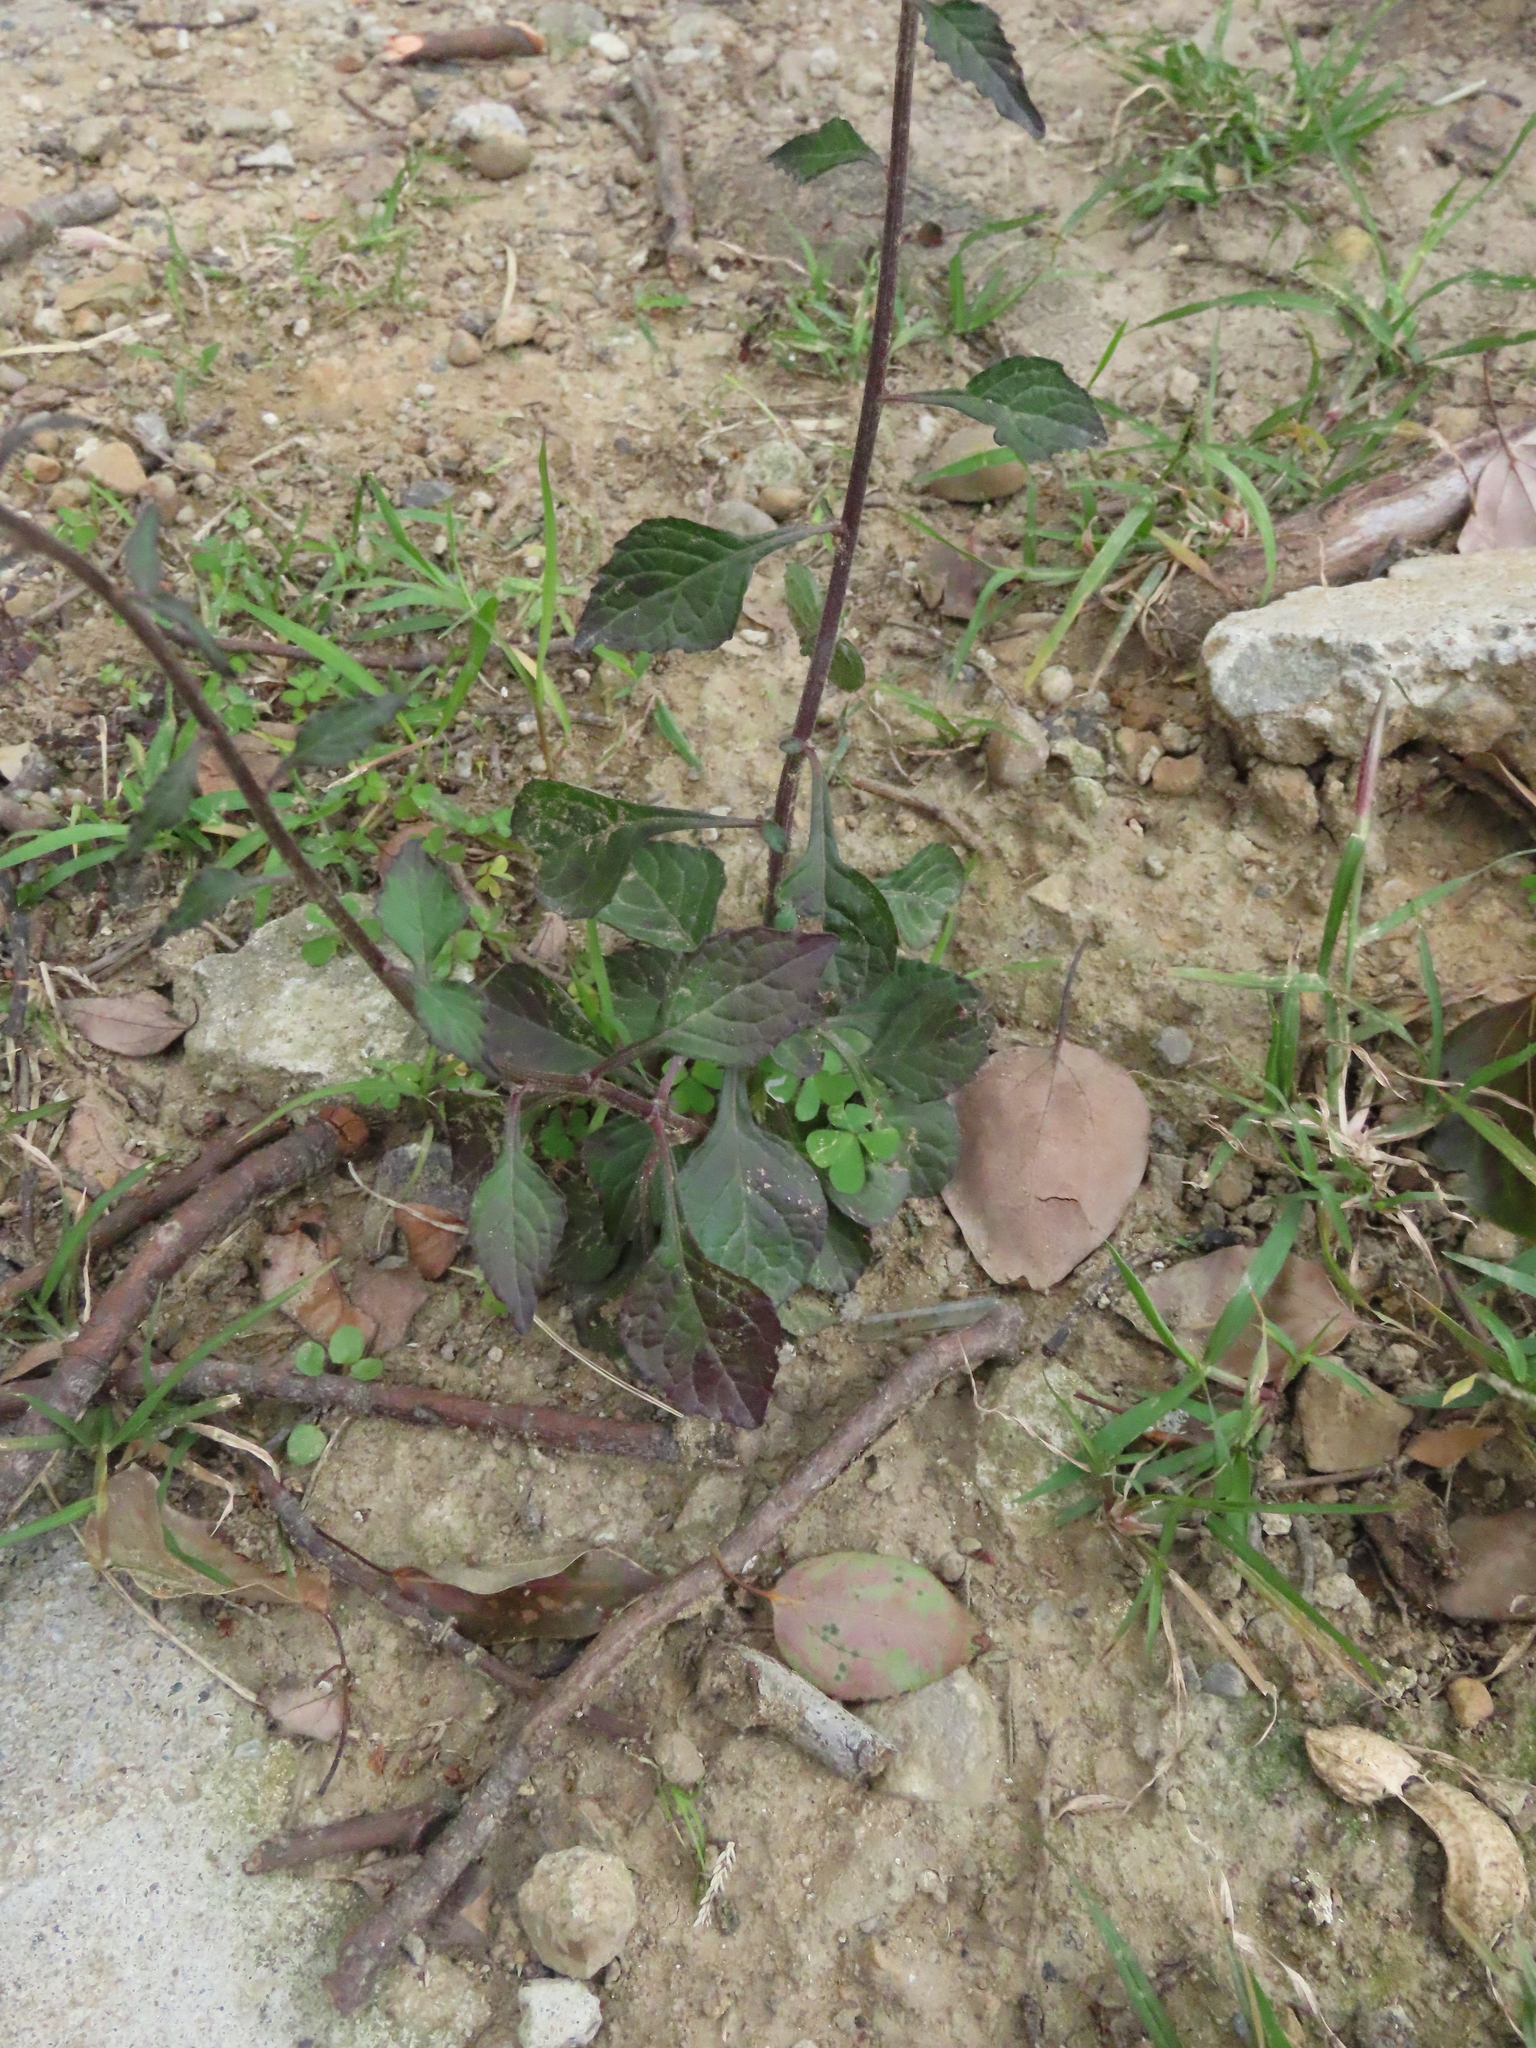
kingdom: Plantae
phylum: Tracheophyta
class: Magnoliopsida
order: Asterales
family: Asteraceae
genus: Cyanthillium
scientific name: Cyanthillium cinereum
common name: Little ironweed
